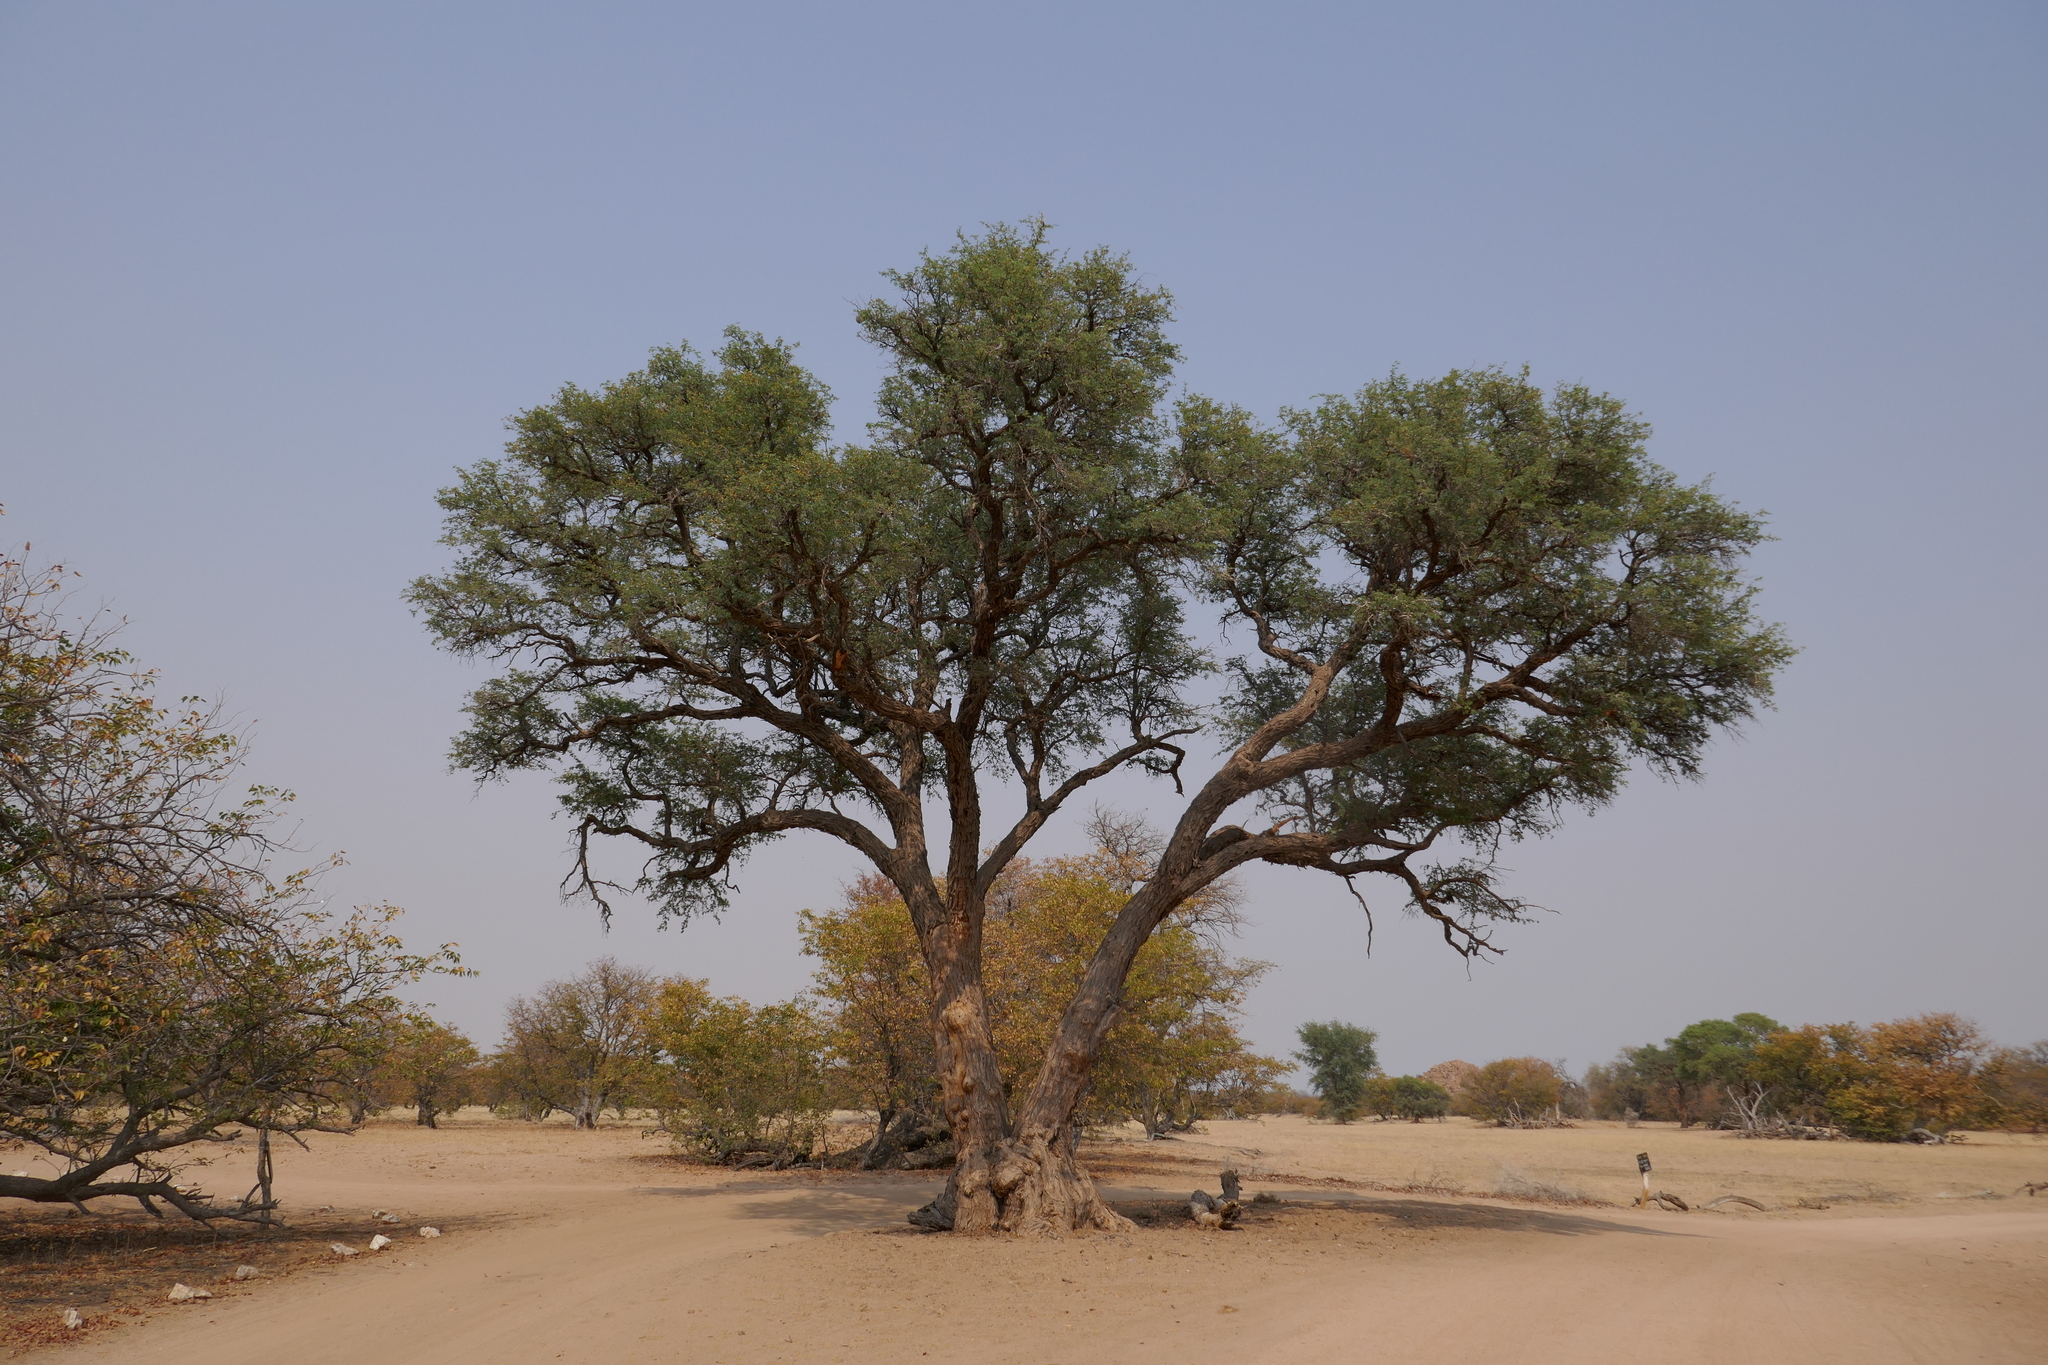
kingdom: Plantae
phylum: Tracheophyta
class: Magnoliopsida
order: Fabales
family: Fabaceae
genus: Vachellia
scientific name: Vachellia erioloba
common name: Camel thorn
